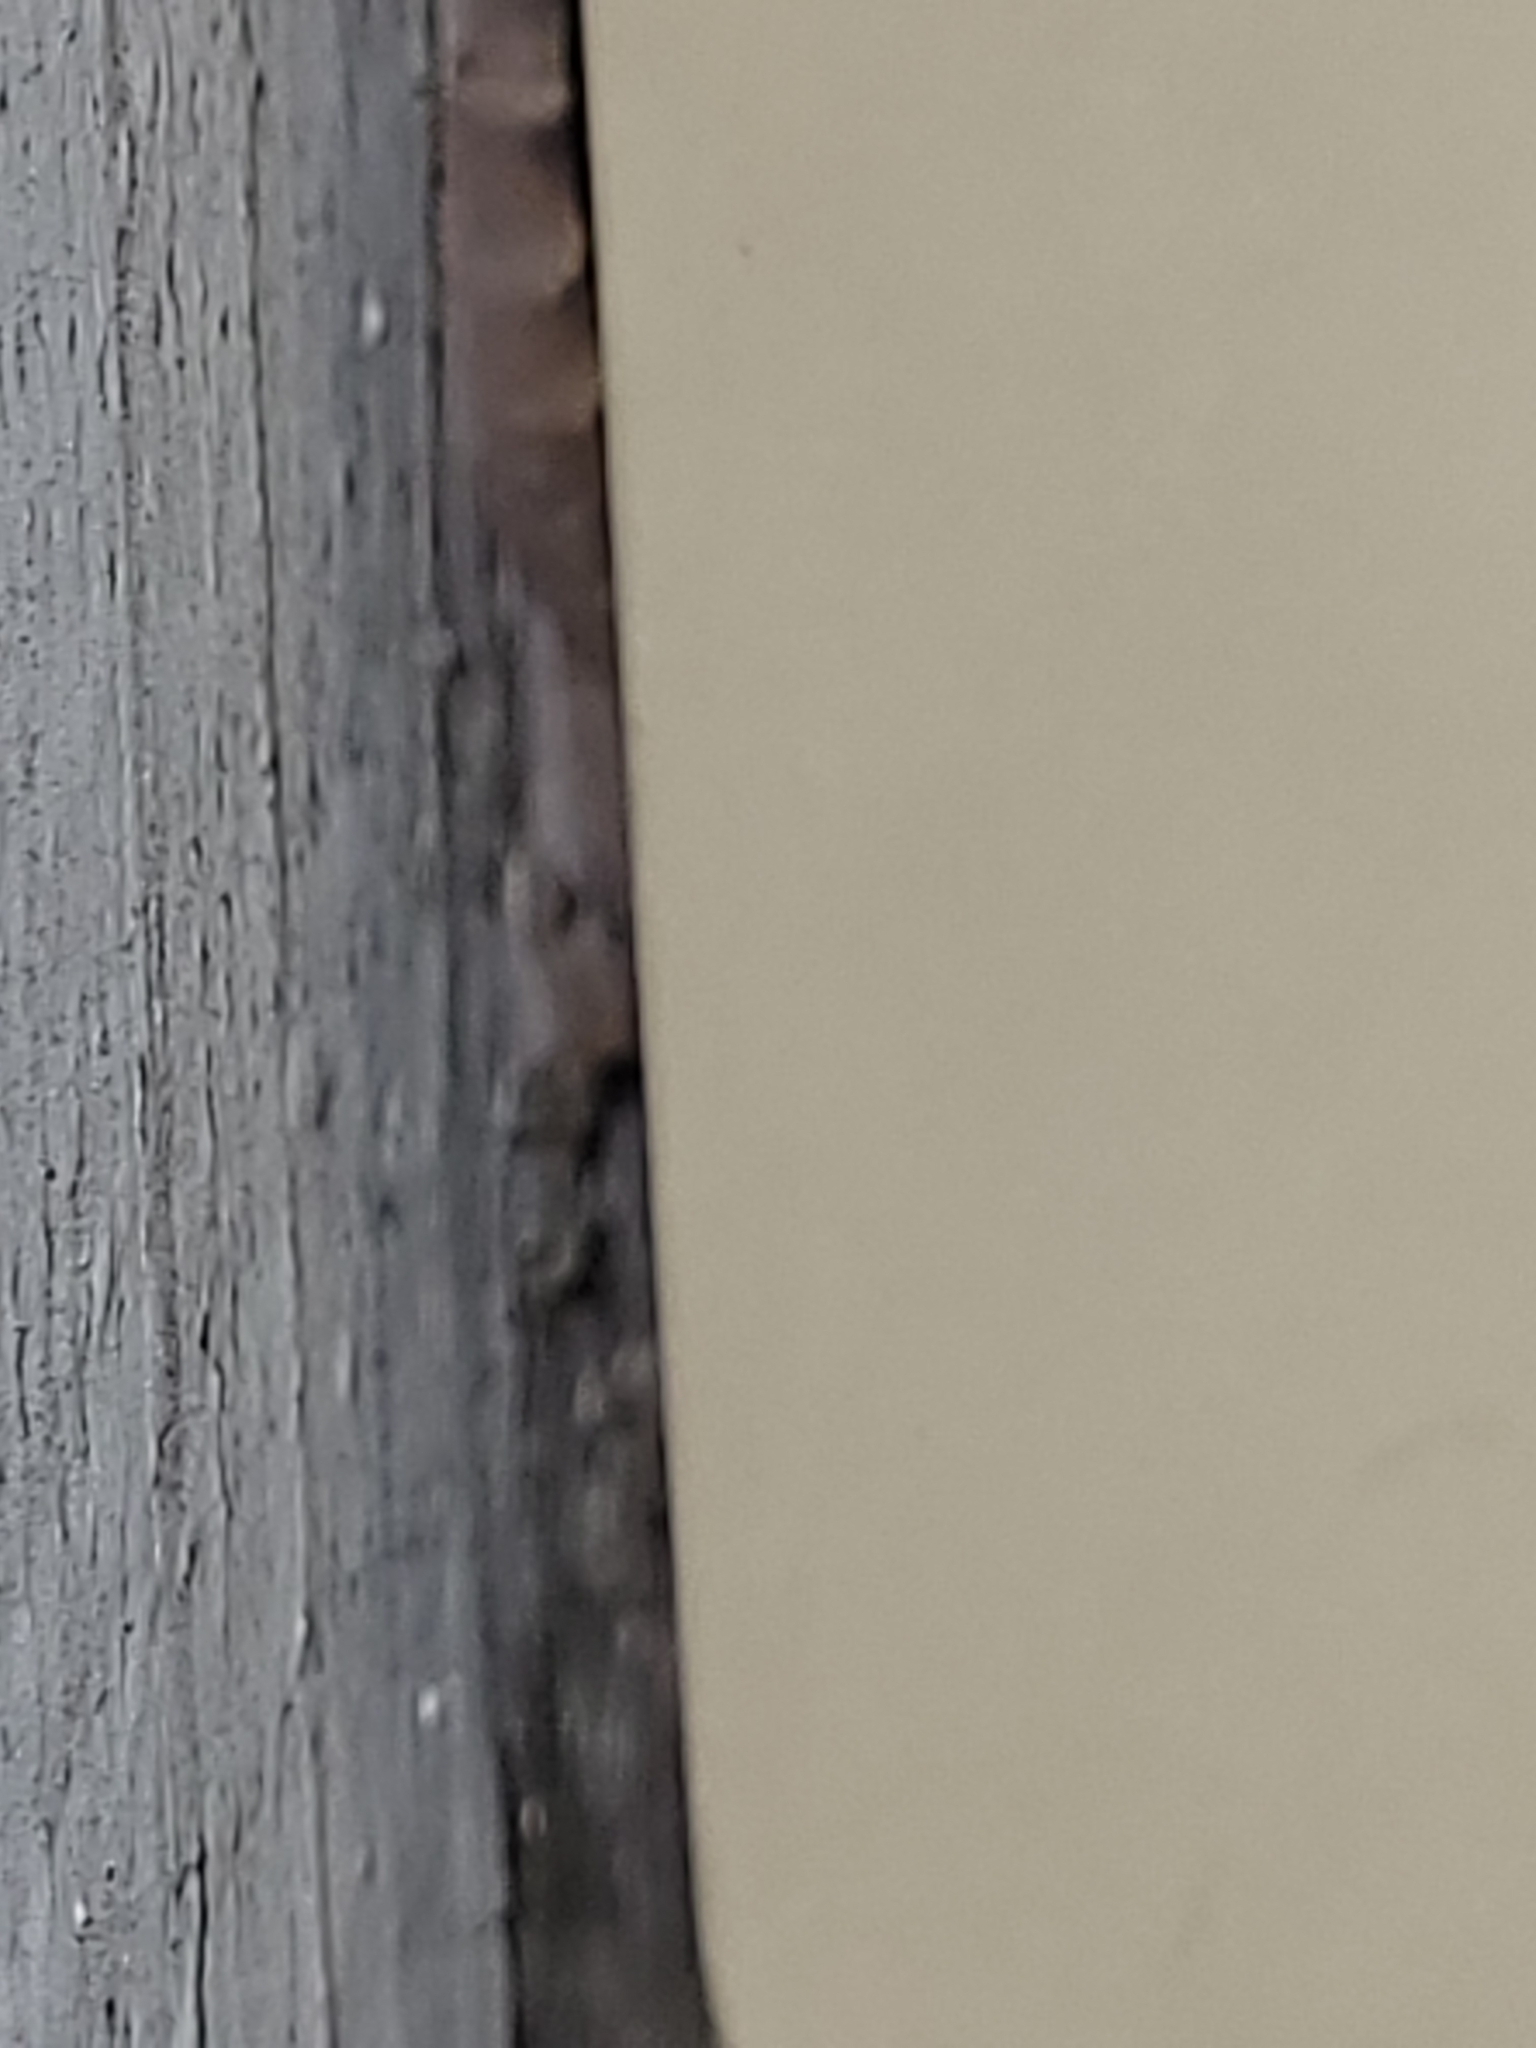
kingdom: Animalia
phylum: Chordata
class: Squamata
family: Gekkonidae
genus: Hemidactylus
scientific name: Hemidactylus turcicus
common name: Turkish gecko
